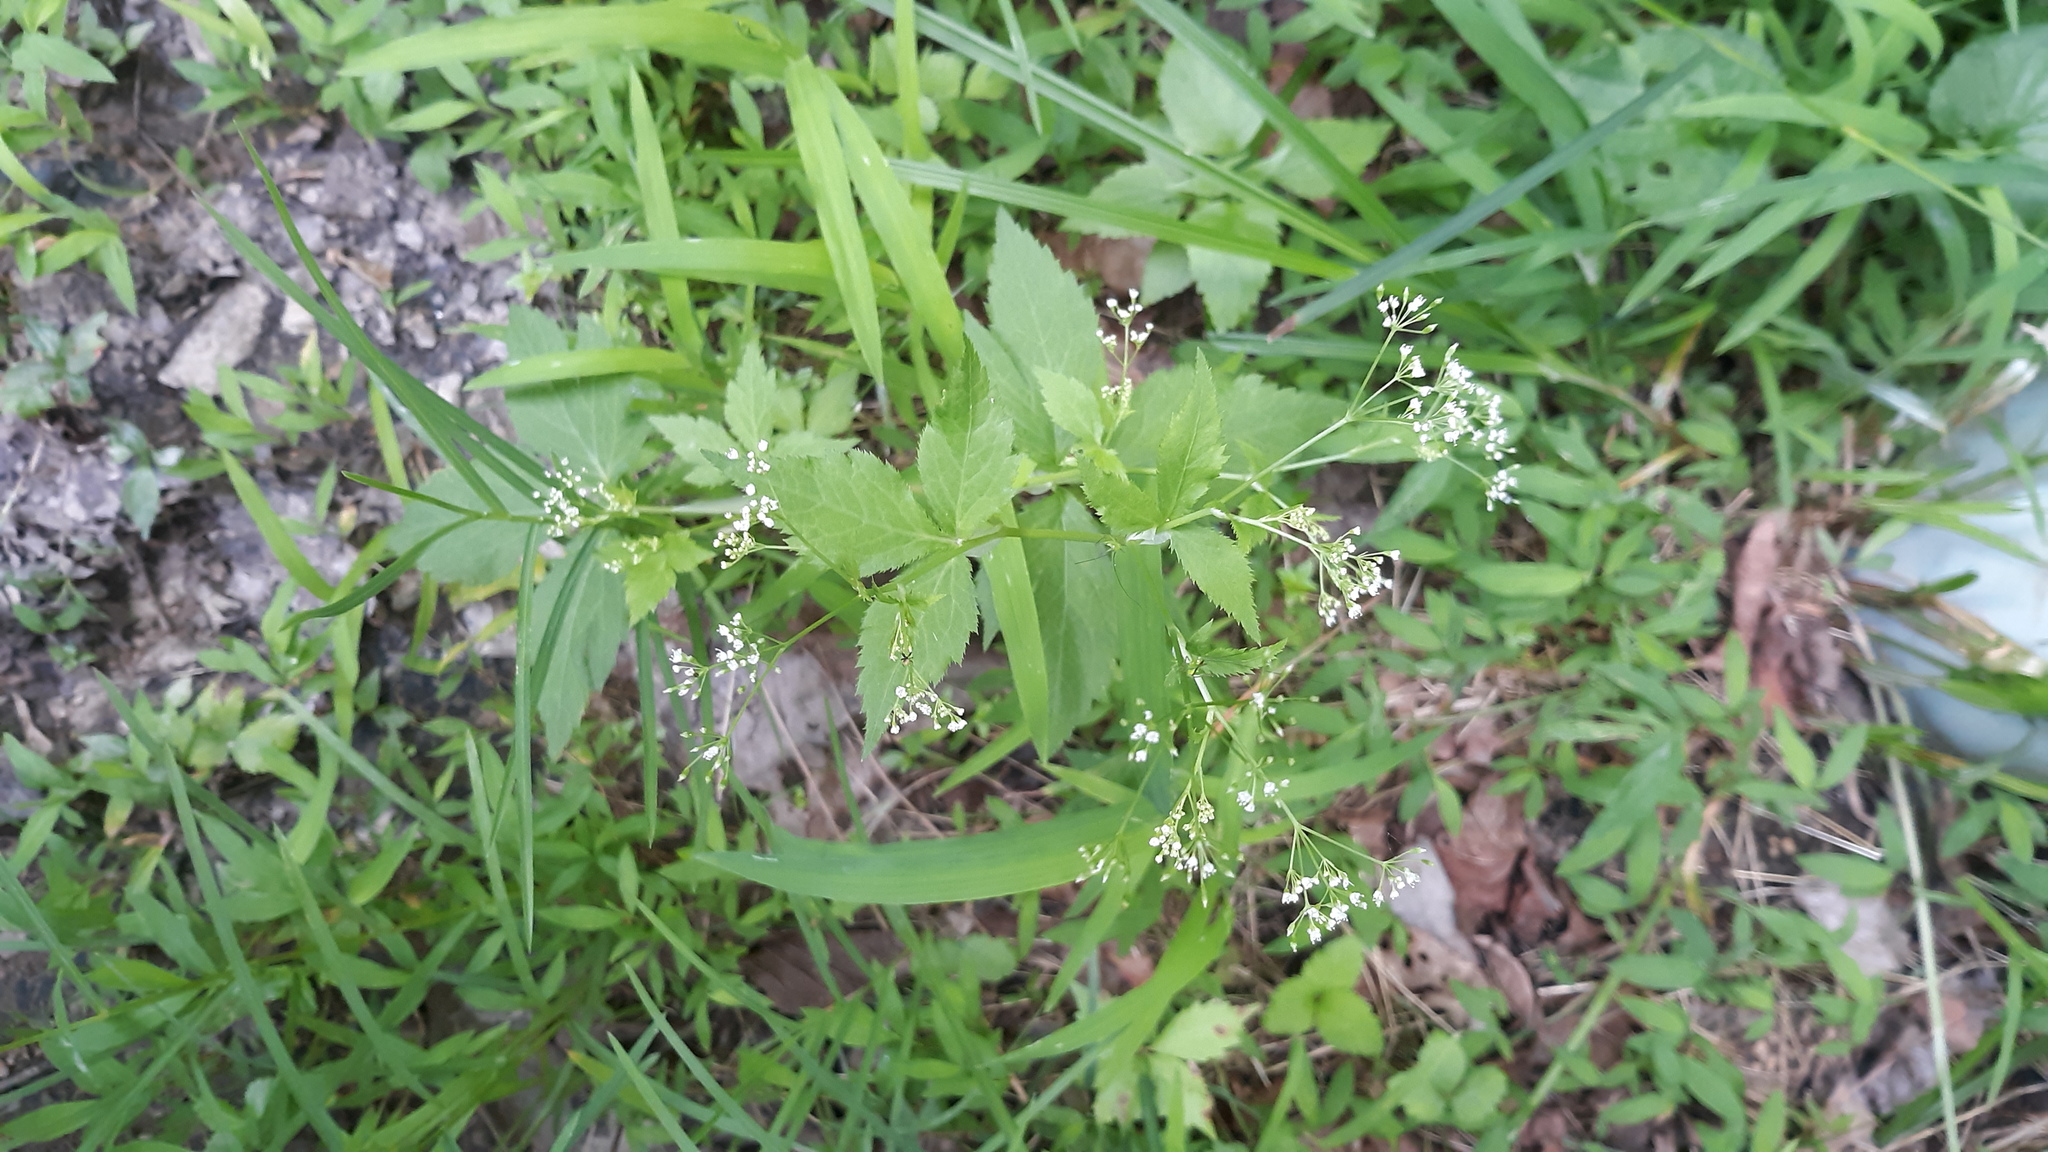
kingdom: Plantae
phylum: Tracheophyta
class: Magnoliopsida
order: Apiales
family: Apiaceae
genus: Cryptotaenia
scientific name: Cryptotaenia canadensis
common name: Honewort
